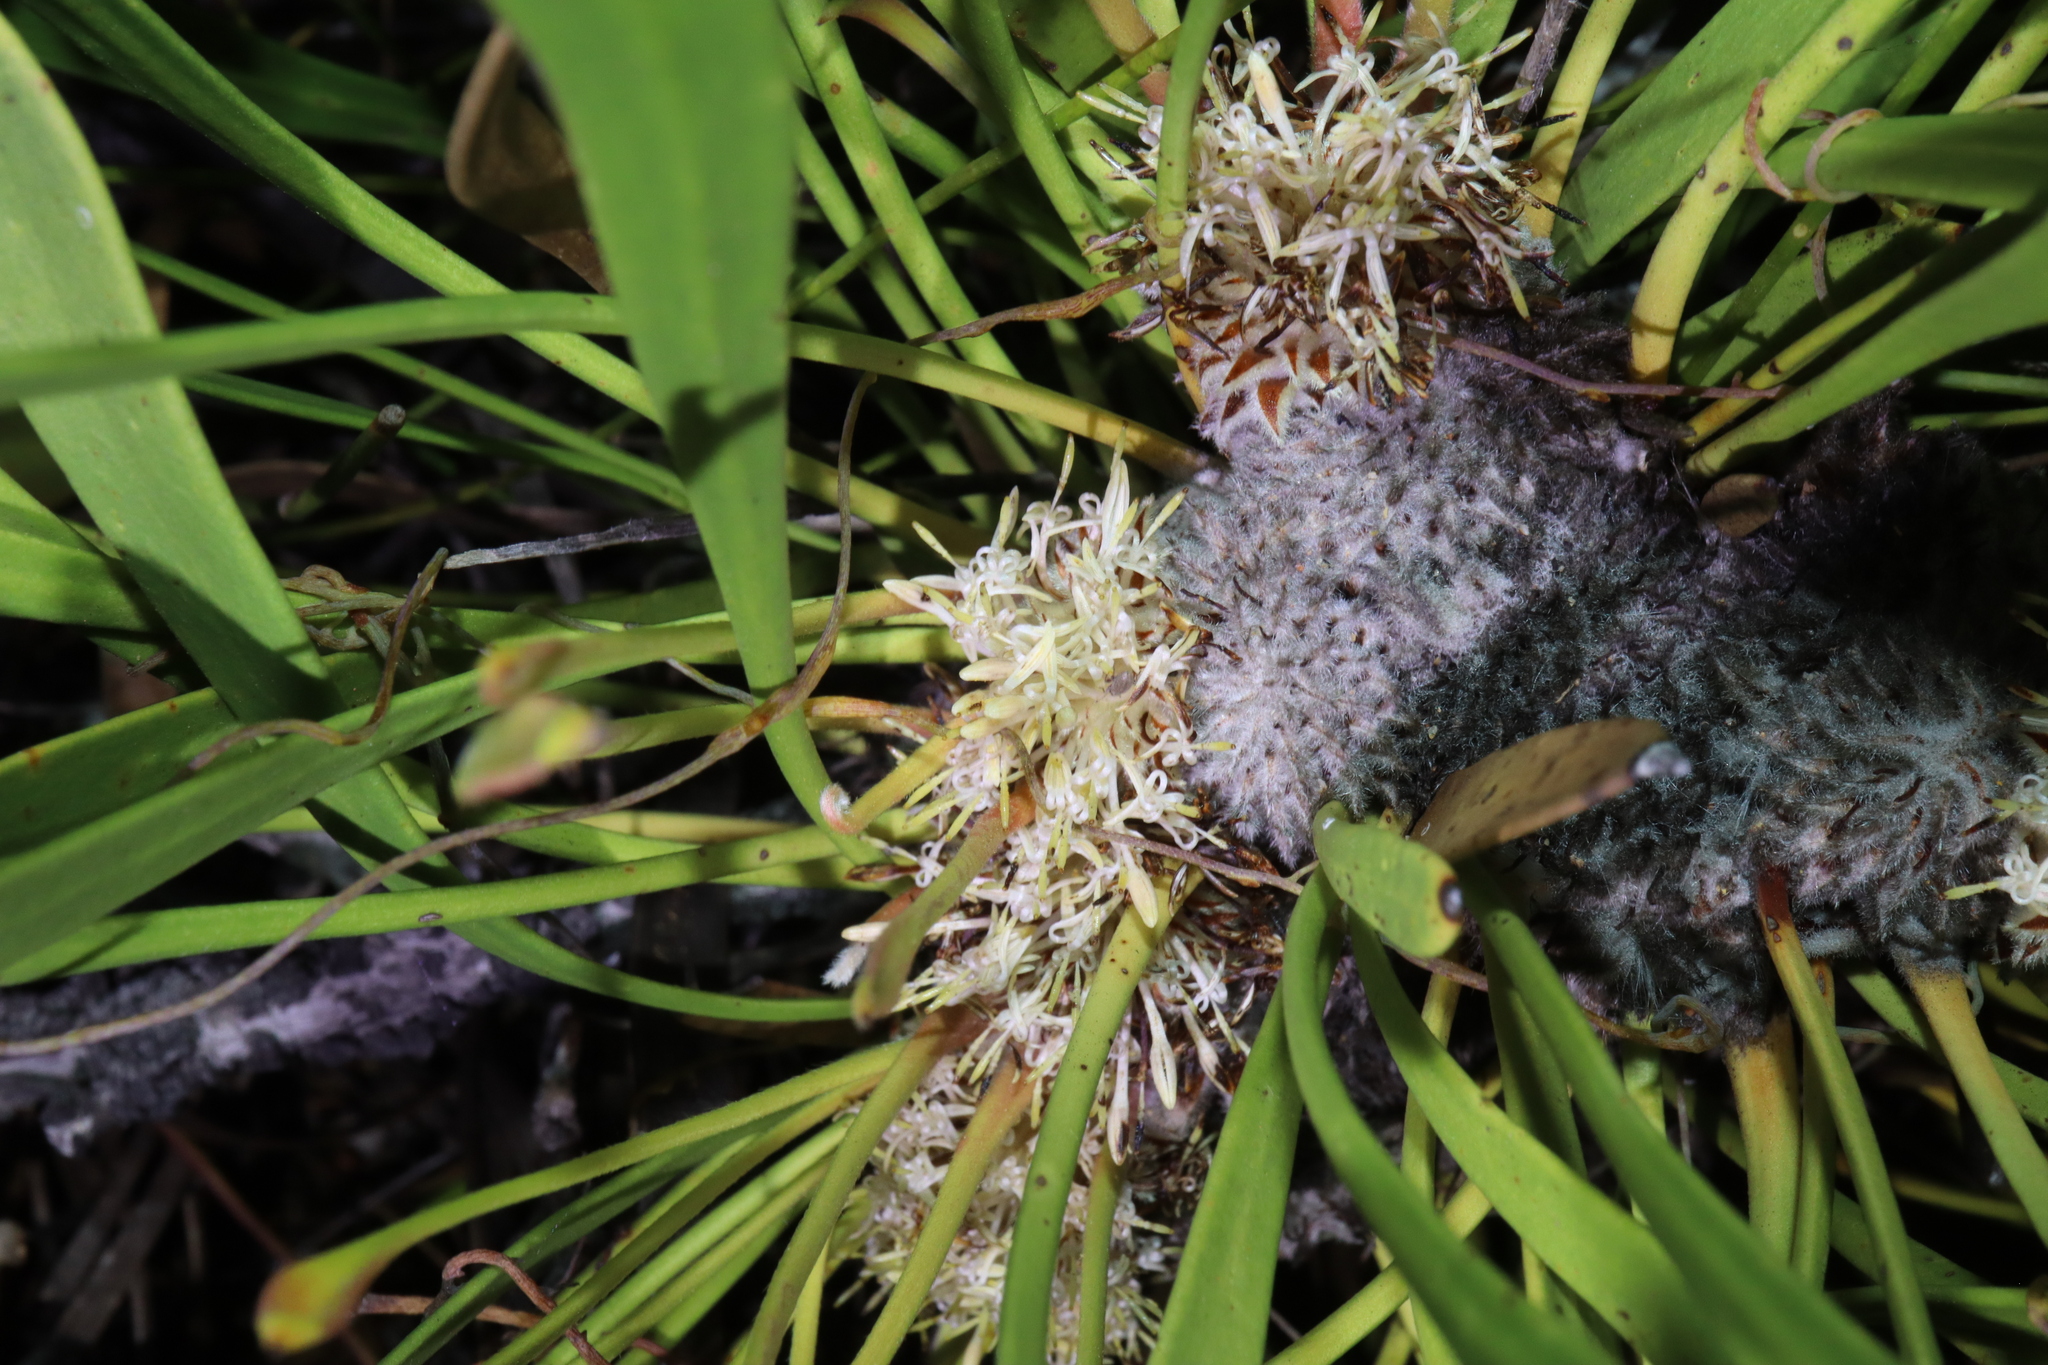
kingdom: Plantae
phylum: Tracheophyta
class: Magnoliopsida
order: Proteales
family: Proteaceae
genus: Isopogon
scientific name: Isopogon polycephalus
